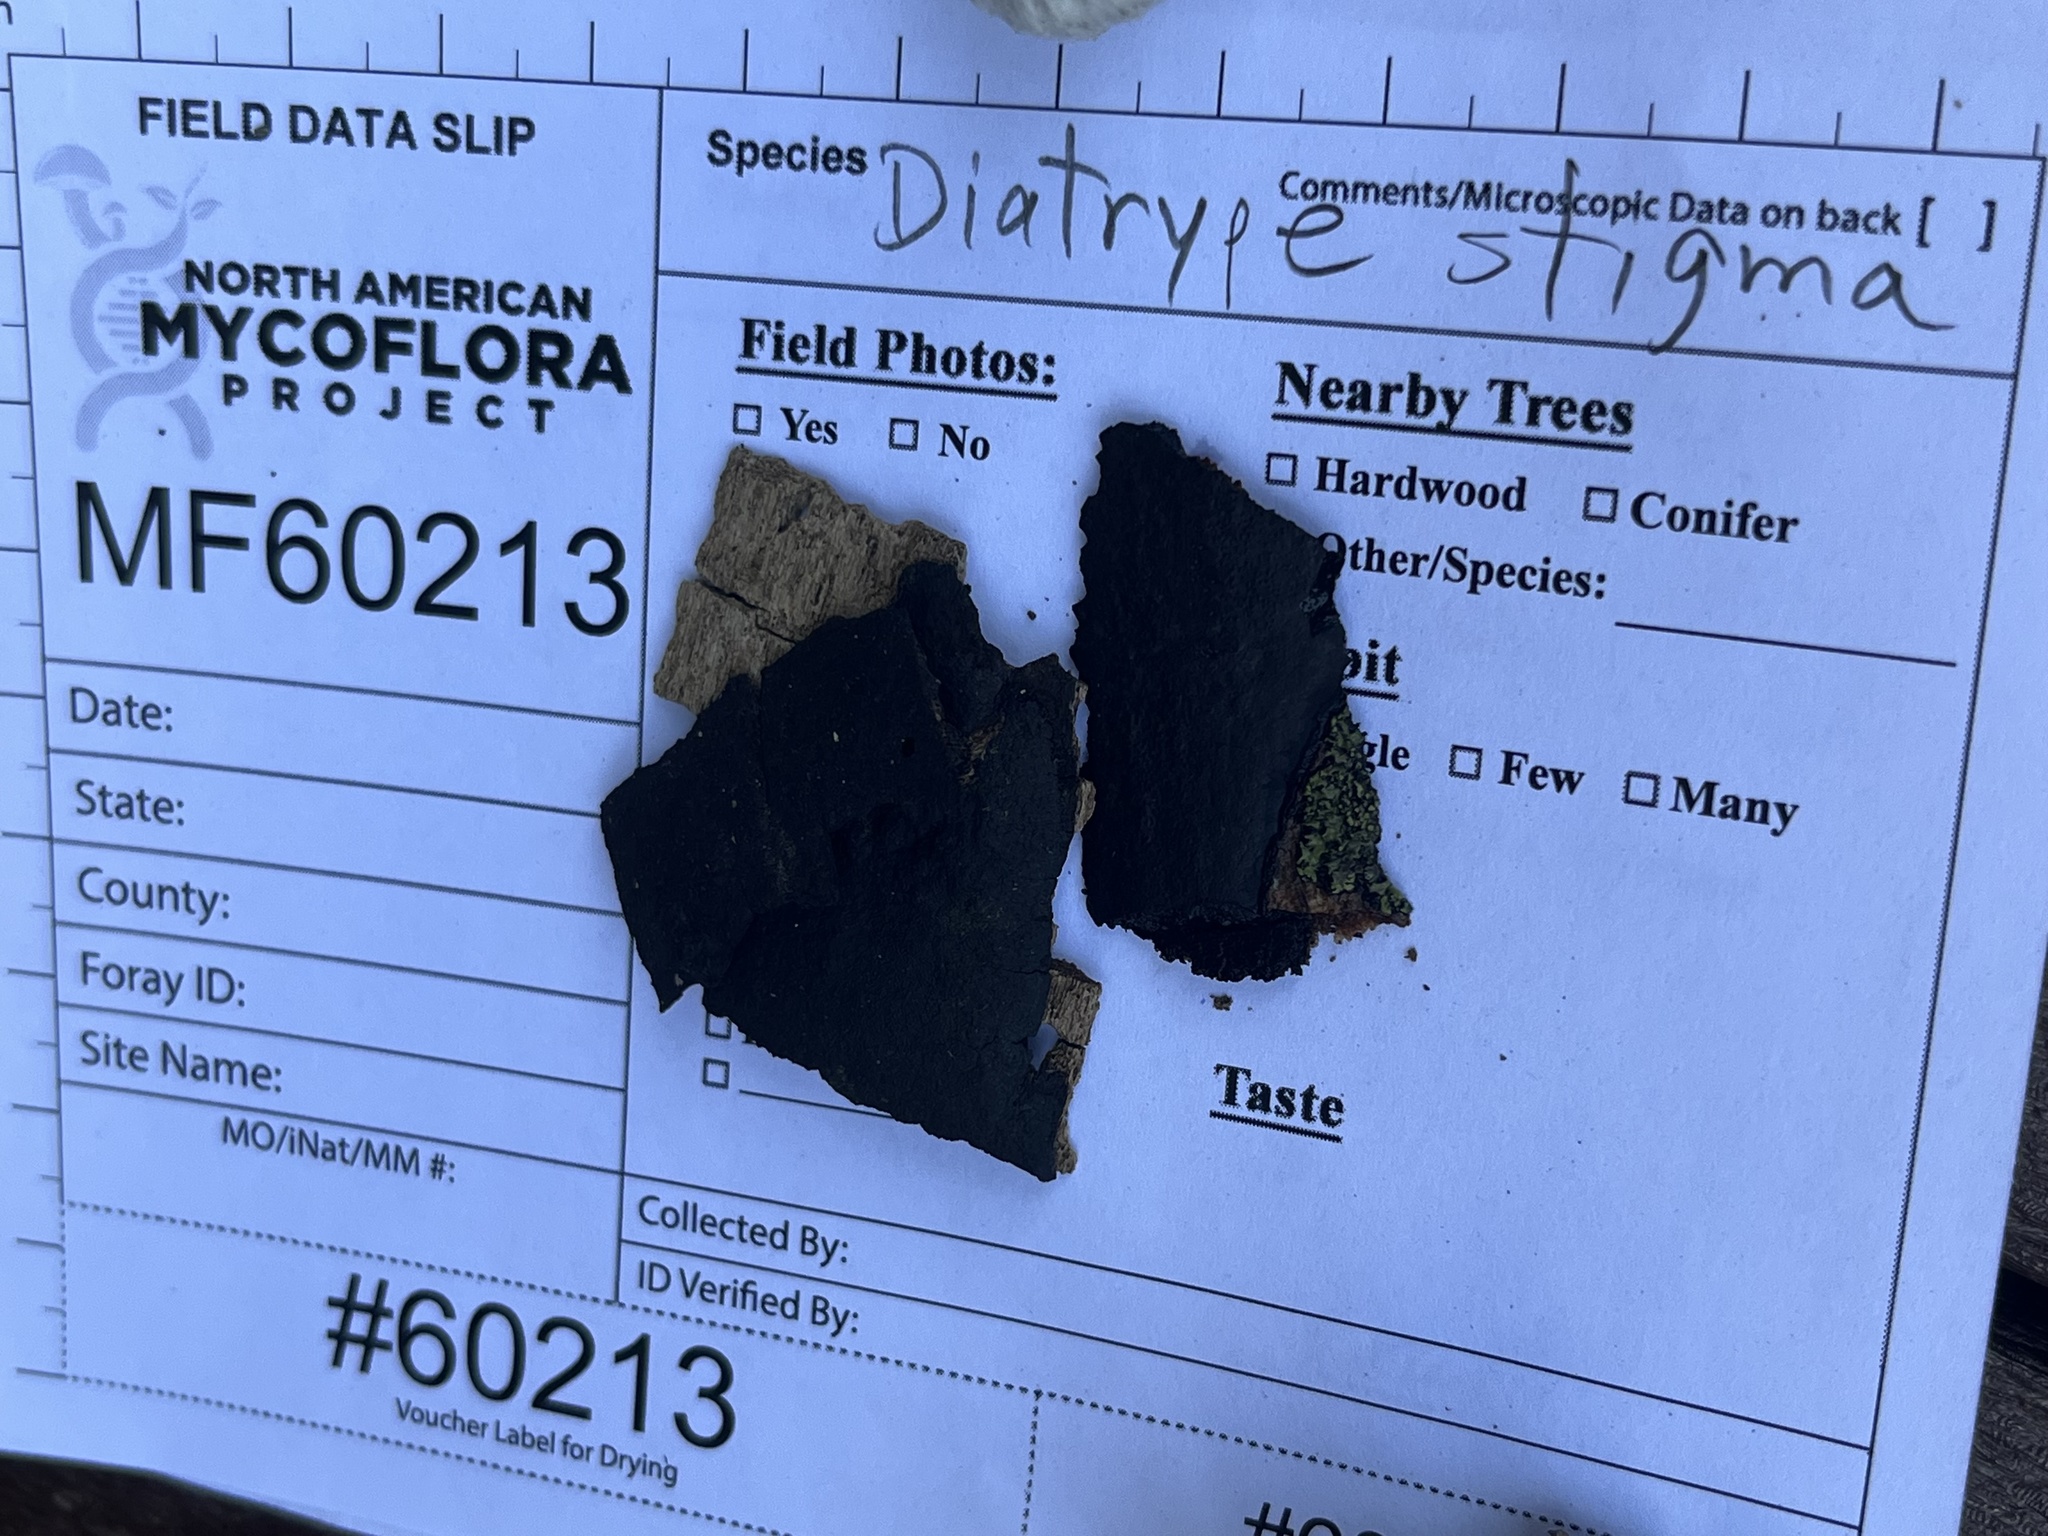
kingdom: Fungi
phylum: Ascomycota
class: Sordariomycetes
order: Xylariales
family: Diatrypaceae
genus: Diatrype
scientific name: Diatrype stigma
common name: Common tarcrust
